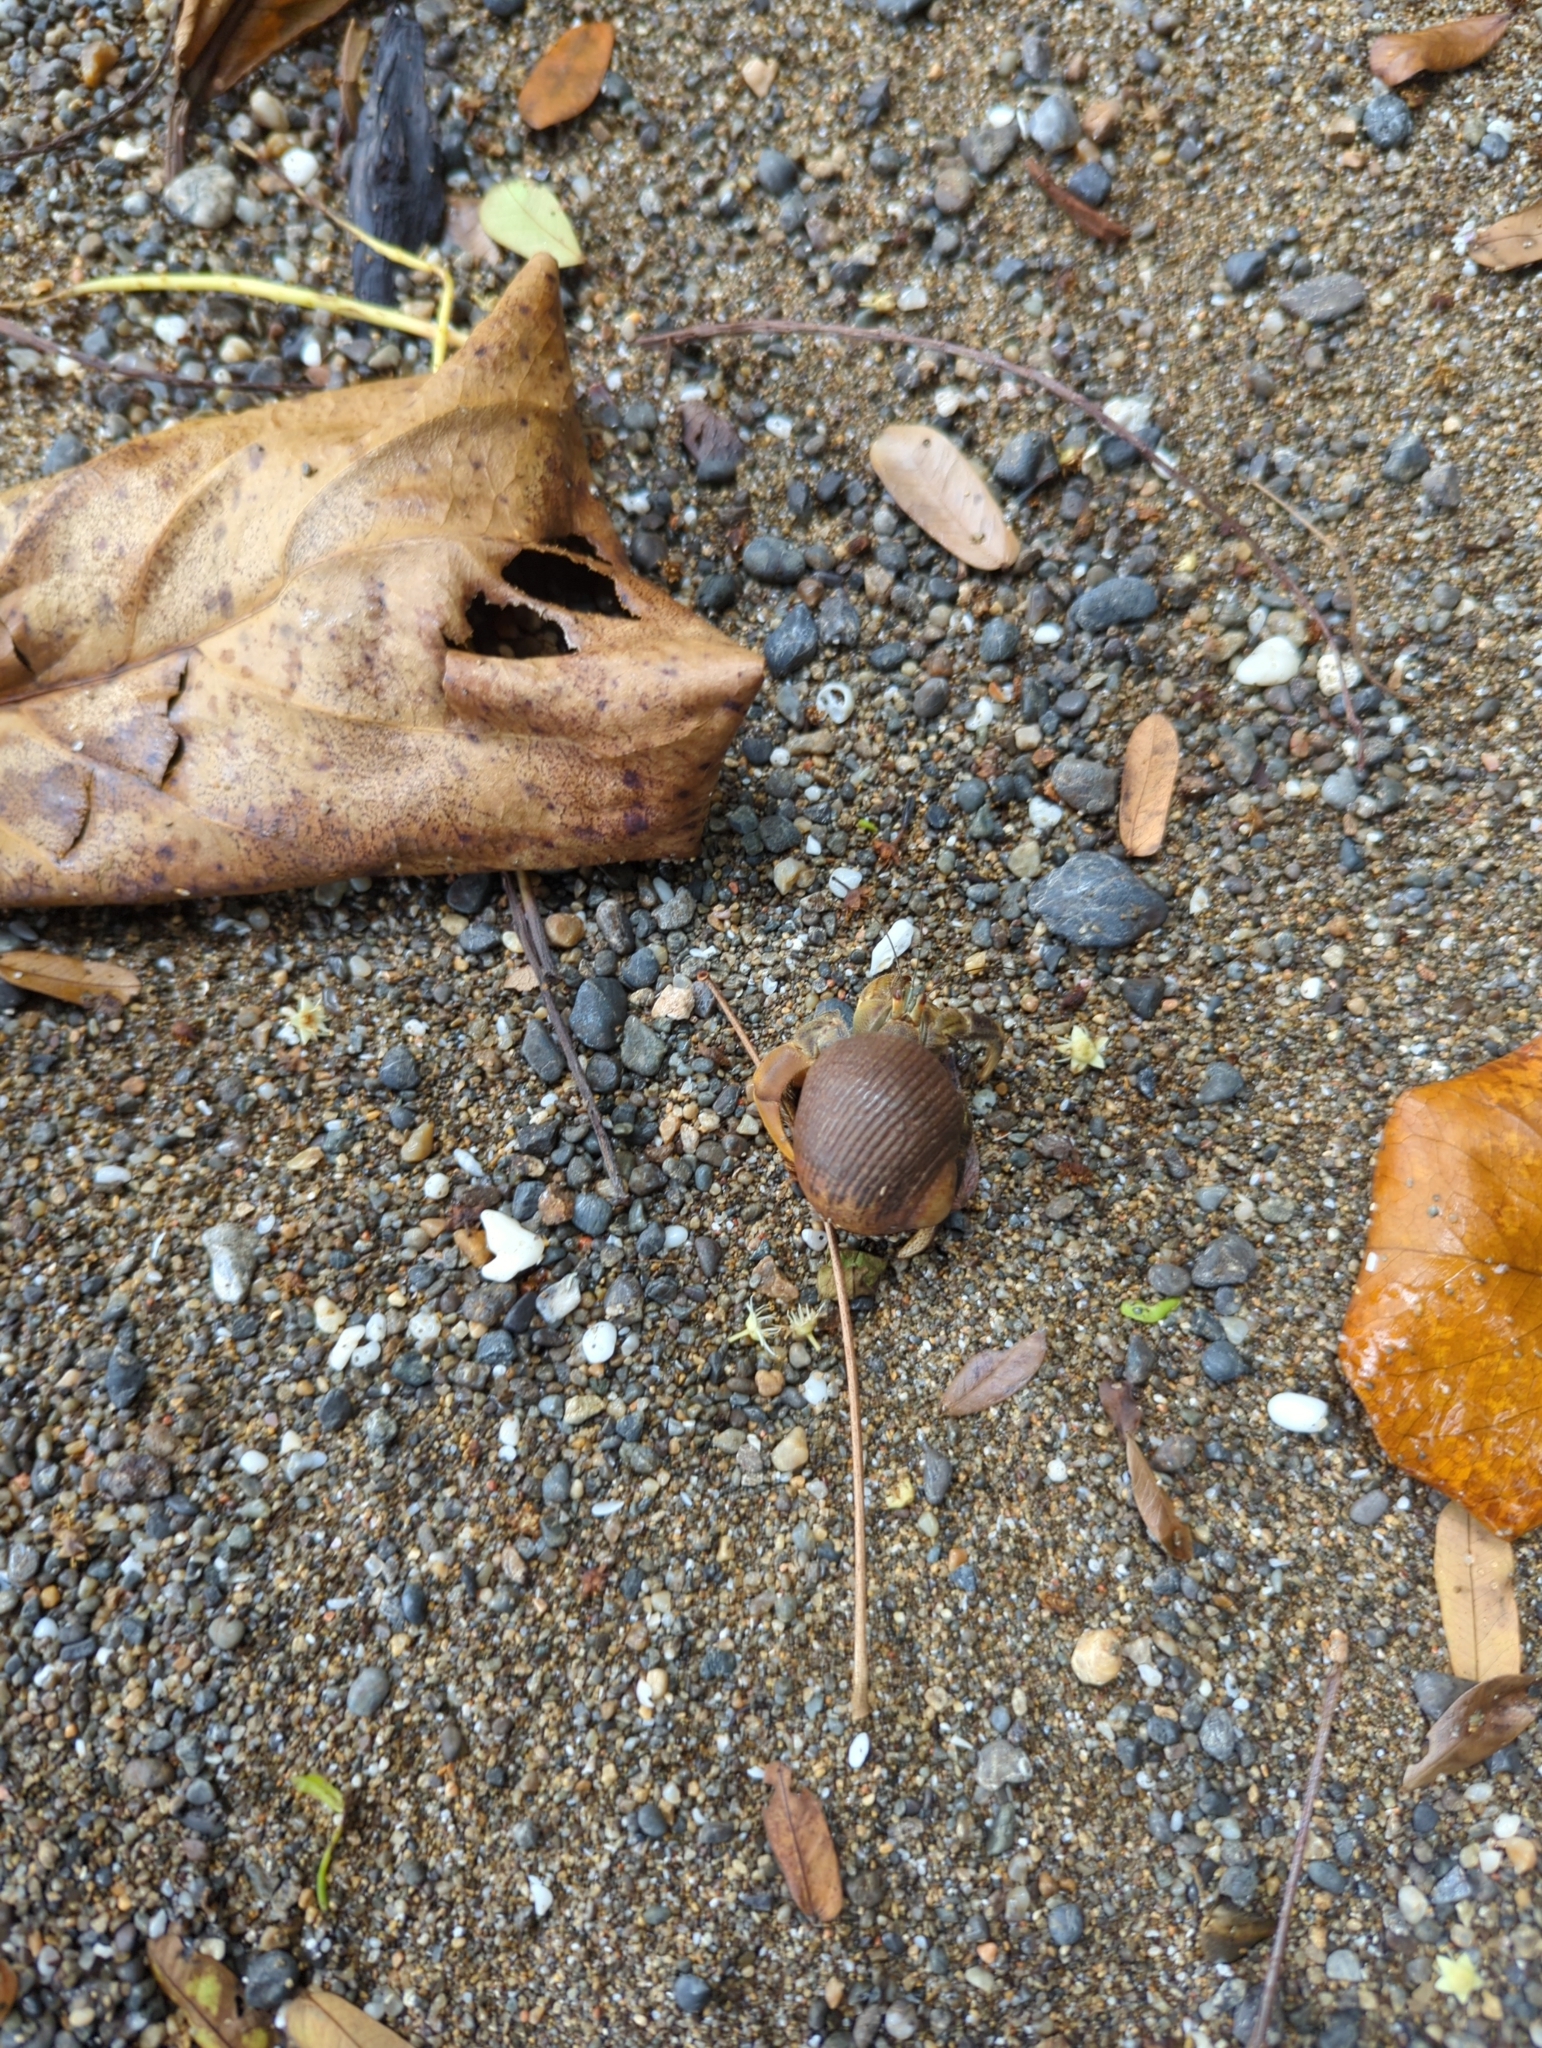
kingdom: Animalia
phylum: Arthropoda
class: Malacostraca
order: Decapoda
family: Coenobitidae
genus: Coenobita
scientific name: Coenobita compressus
